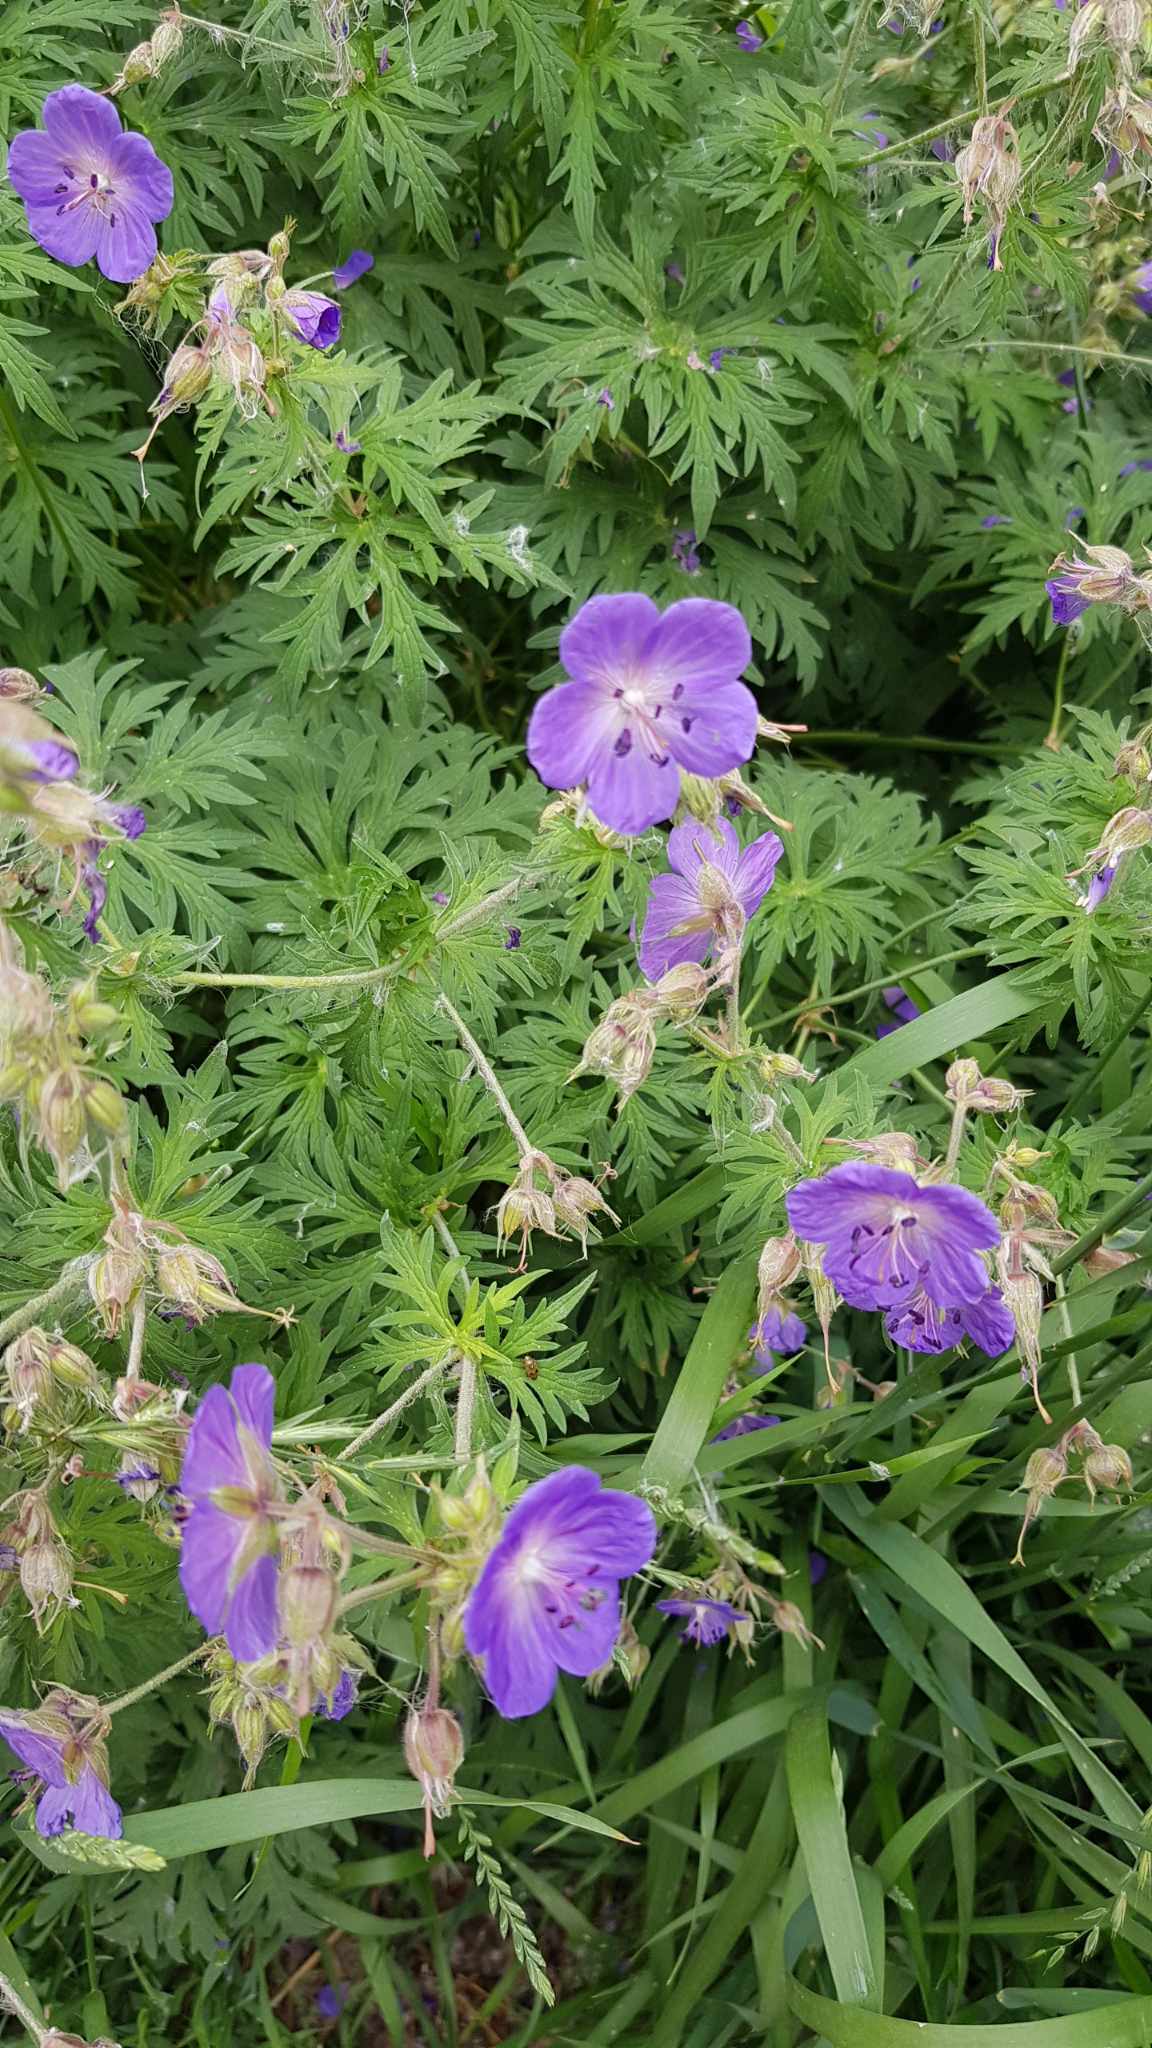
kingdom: Plantae
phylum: Tracheophyta
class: Magnoliopsida
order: Geraniales
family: Geraniaceae
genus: Geranium
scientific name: Geranium pratense
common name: Meadow crane's-bill
